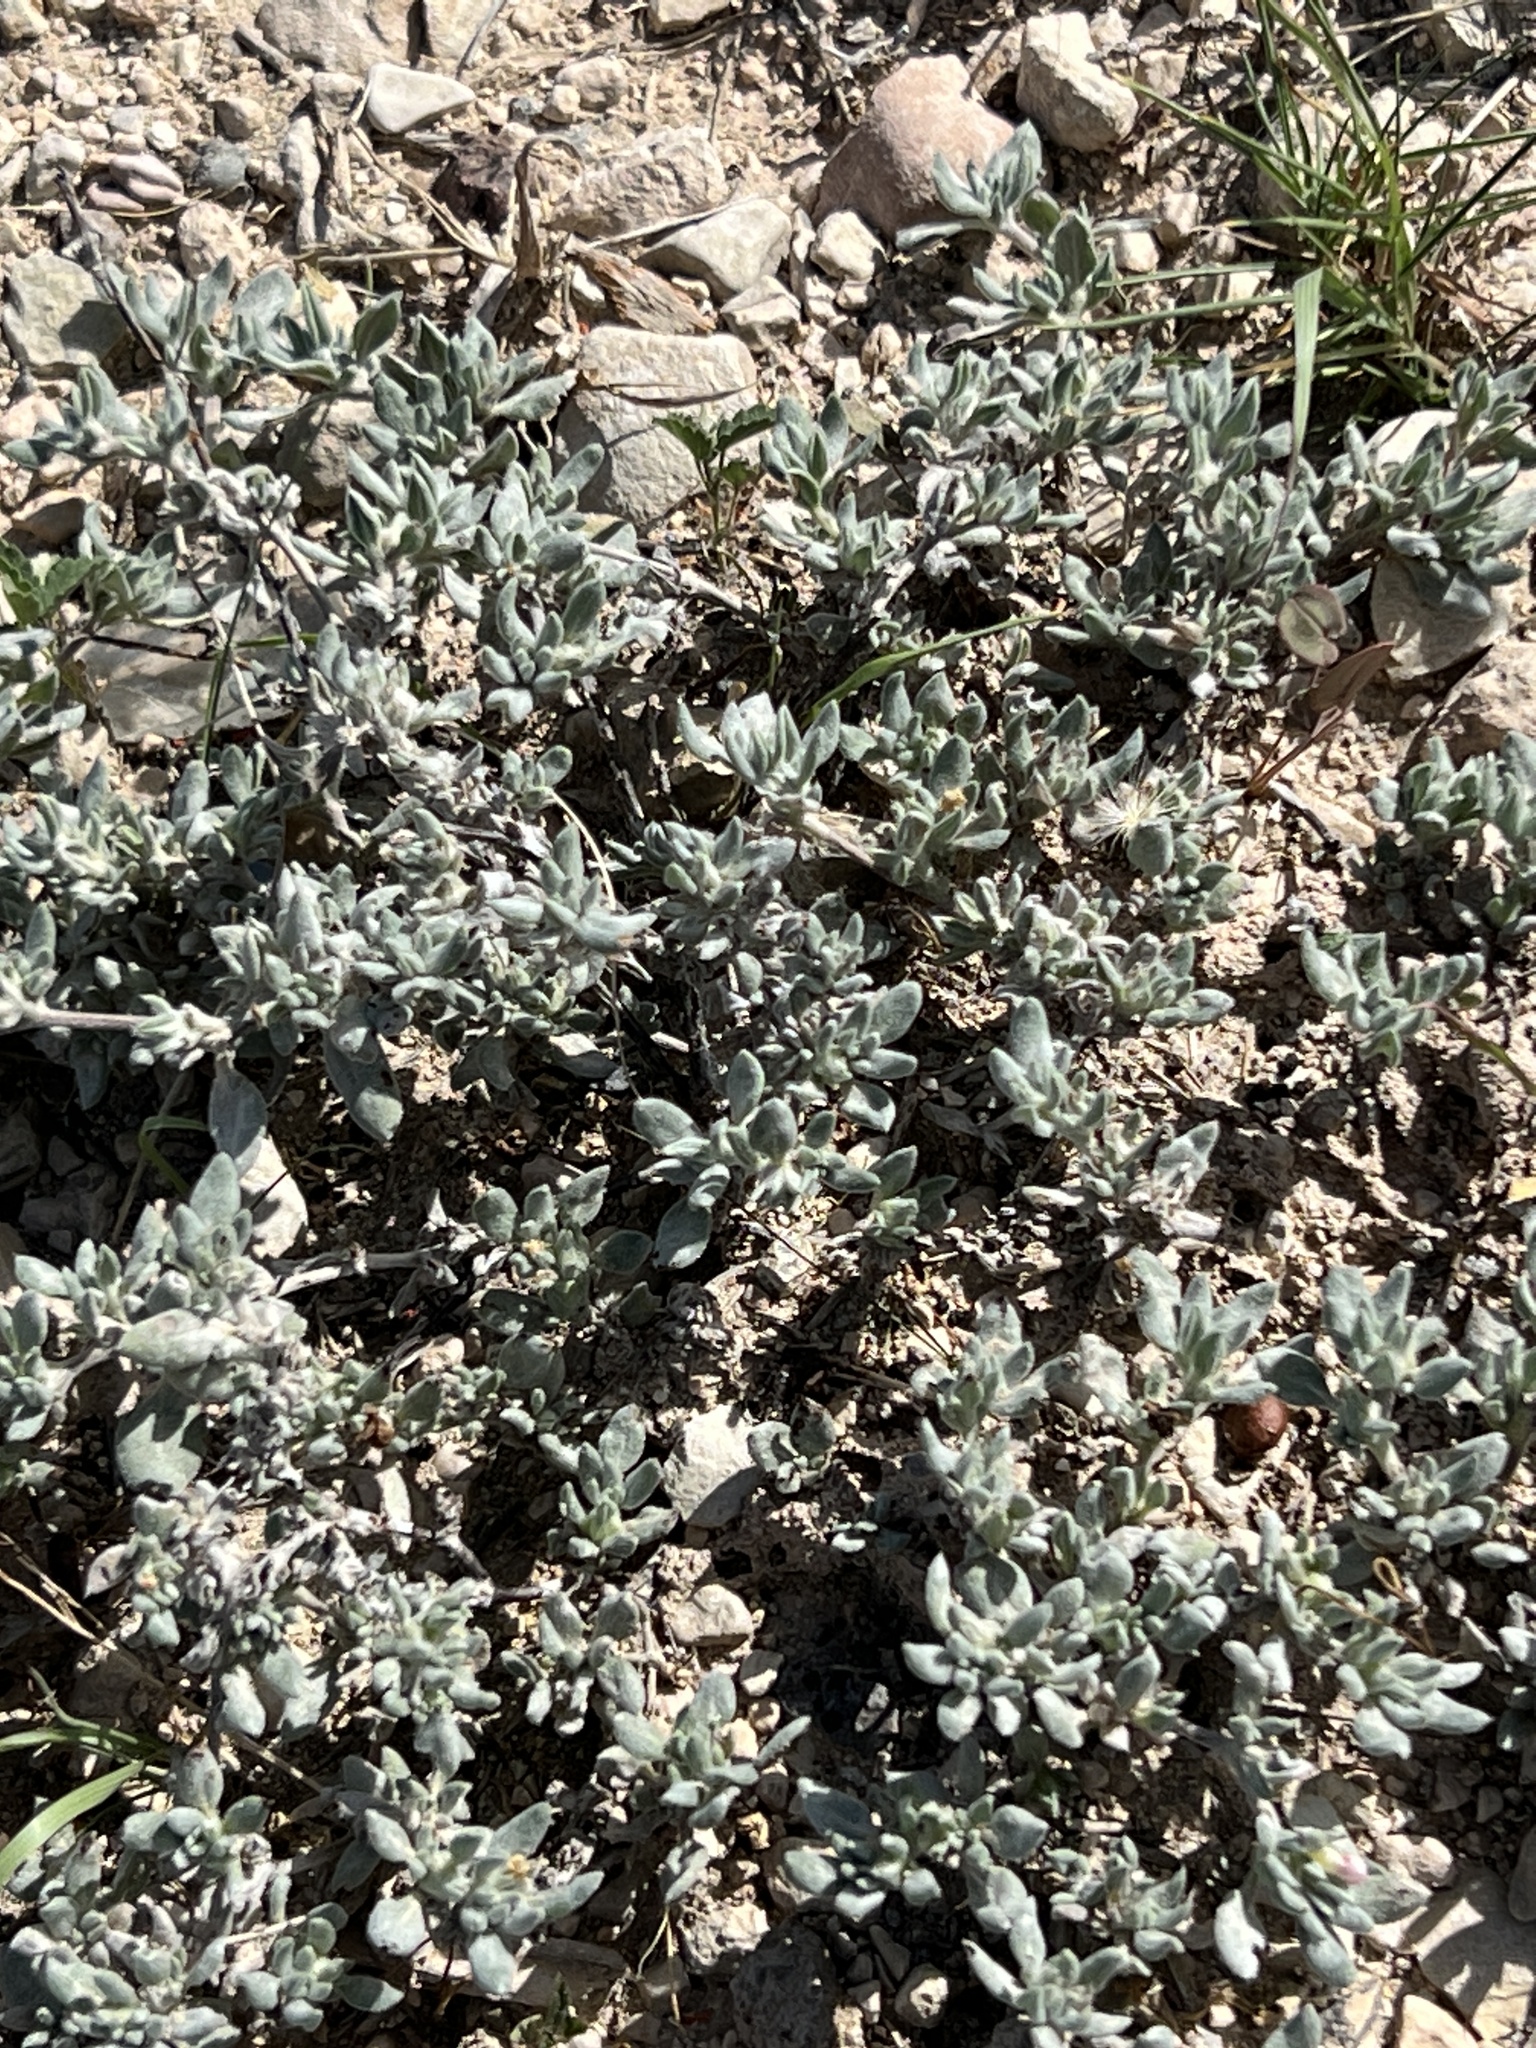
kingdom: Plantae
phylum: Tracheophyta
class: Magnoliopsida
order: Boraginales
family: Ehretiaceae
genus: Tiquilia
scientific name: Tiquilia canescens
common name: Hairy tiquilia
